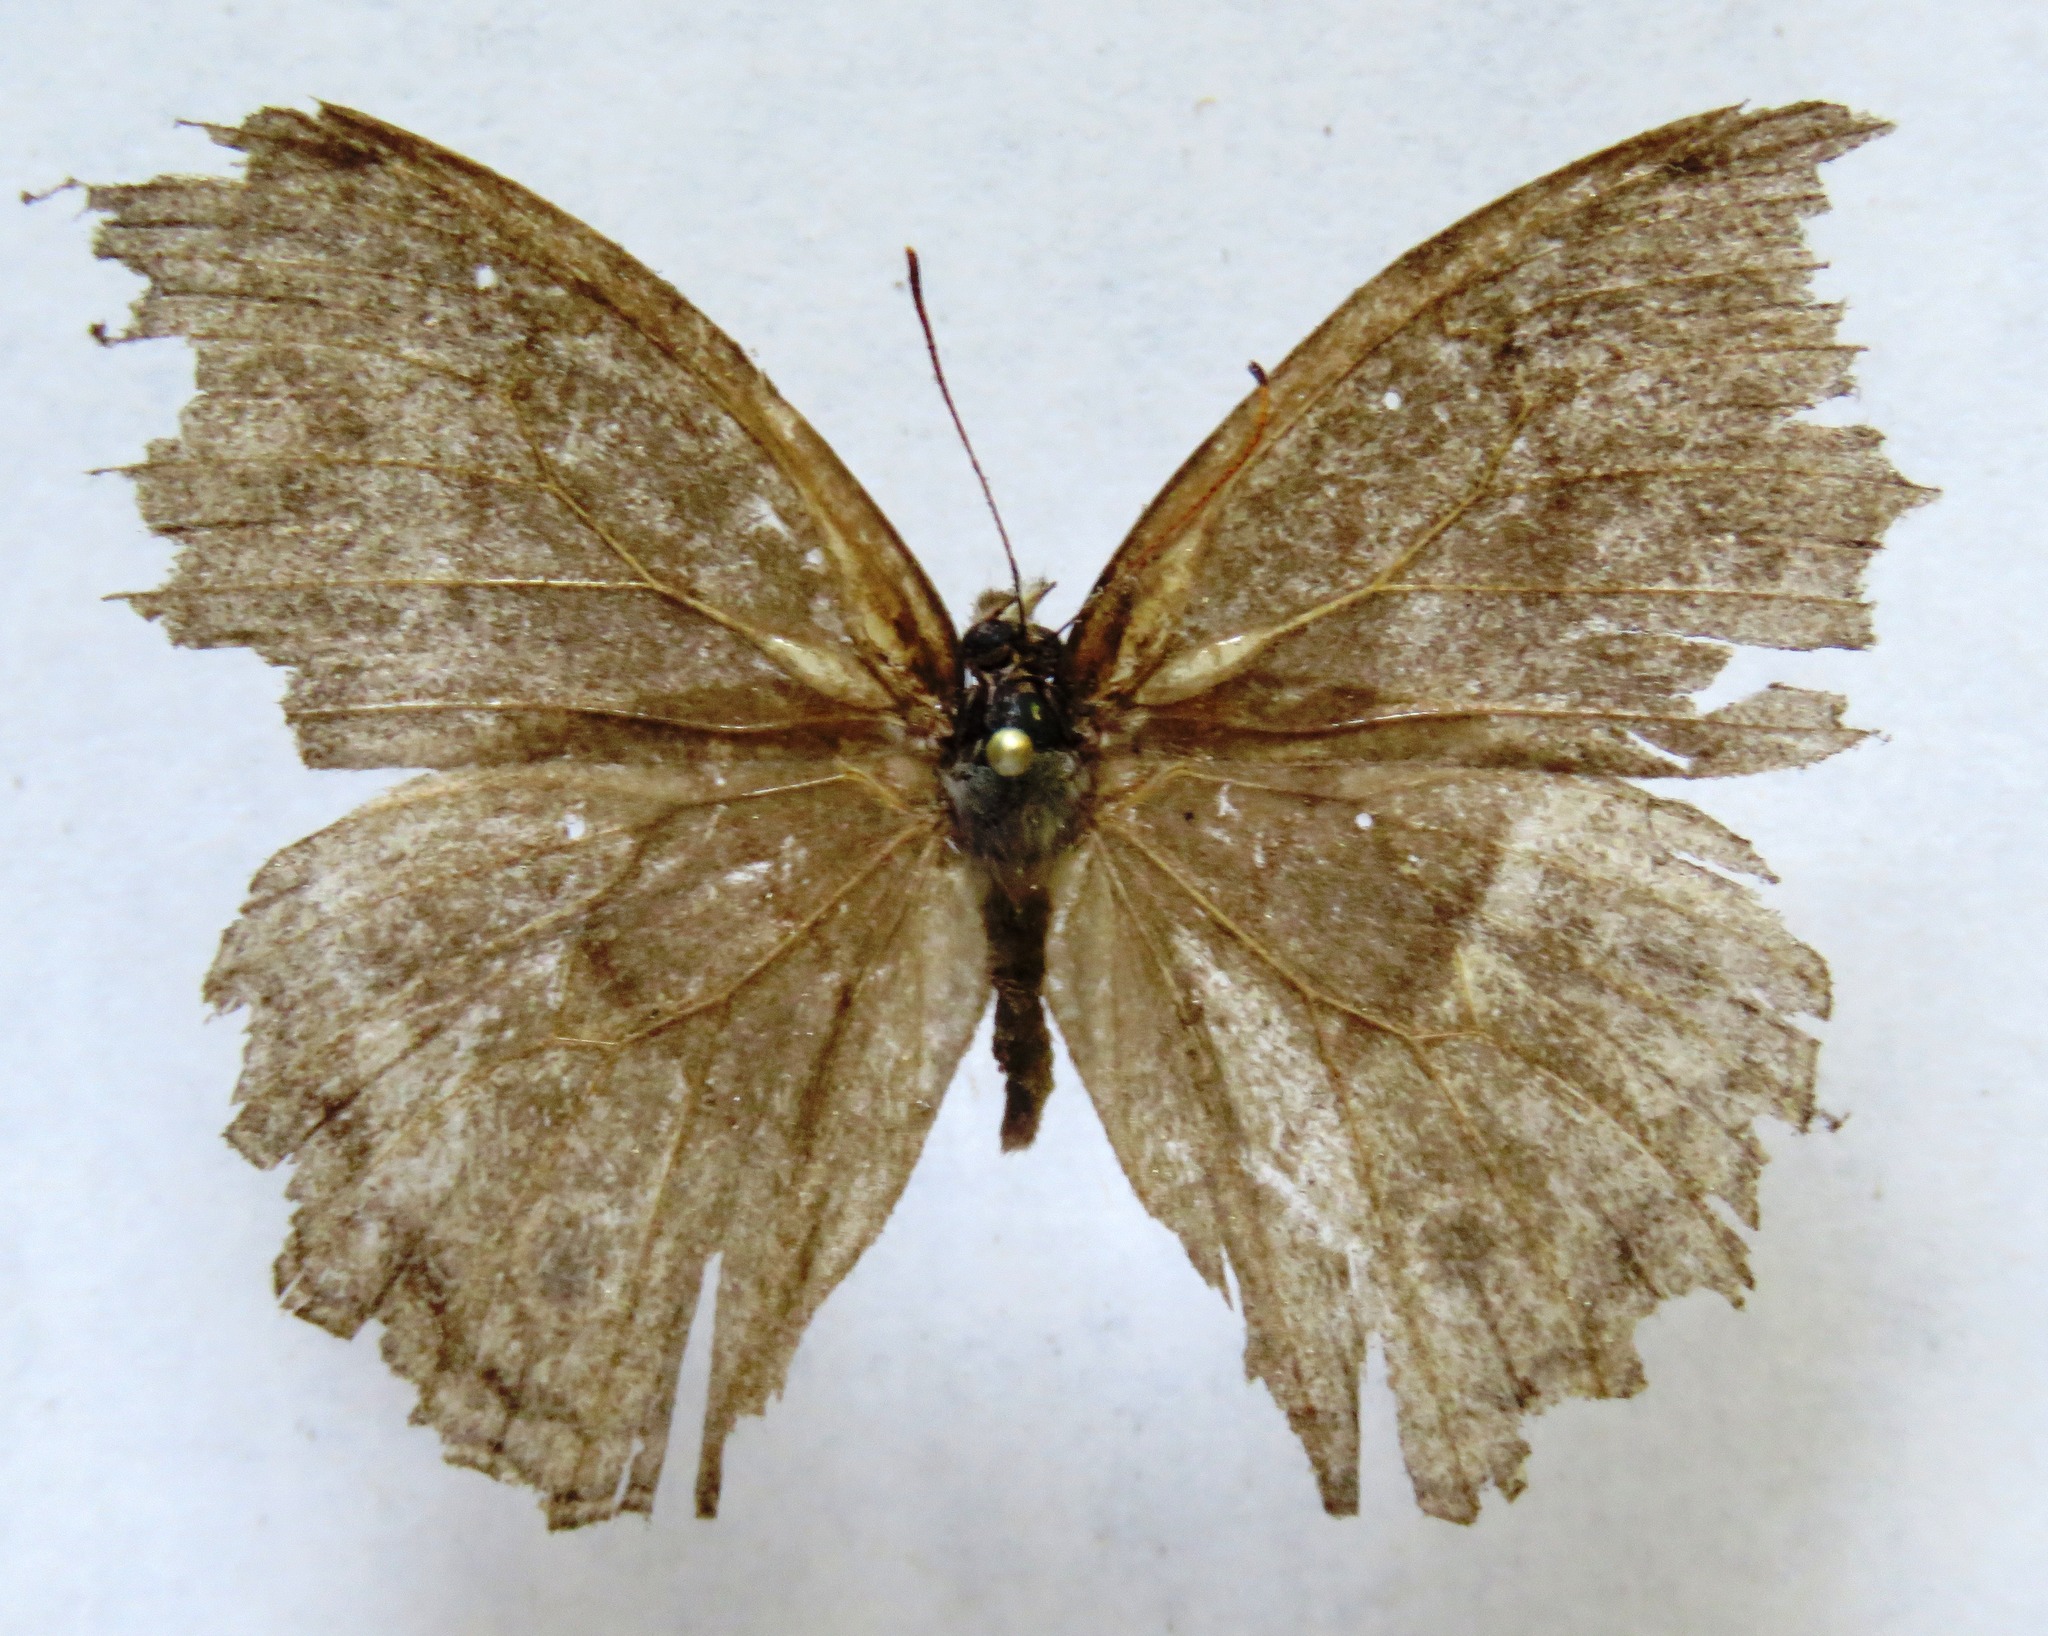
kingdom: Animalia
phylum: Arthropoda
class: Insecta
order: Lepidoptera
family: Nymphalidae
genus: Magneuptychia
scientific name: Magneuptychia libye
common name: Blue-gray satyr
